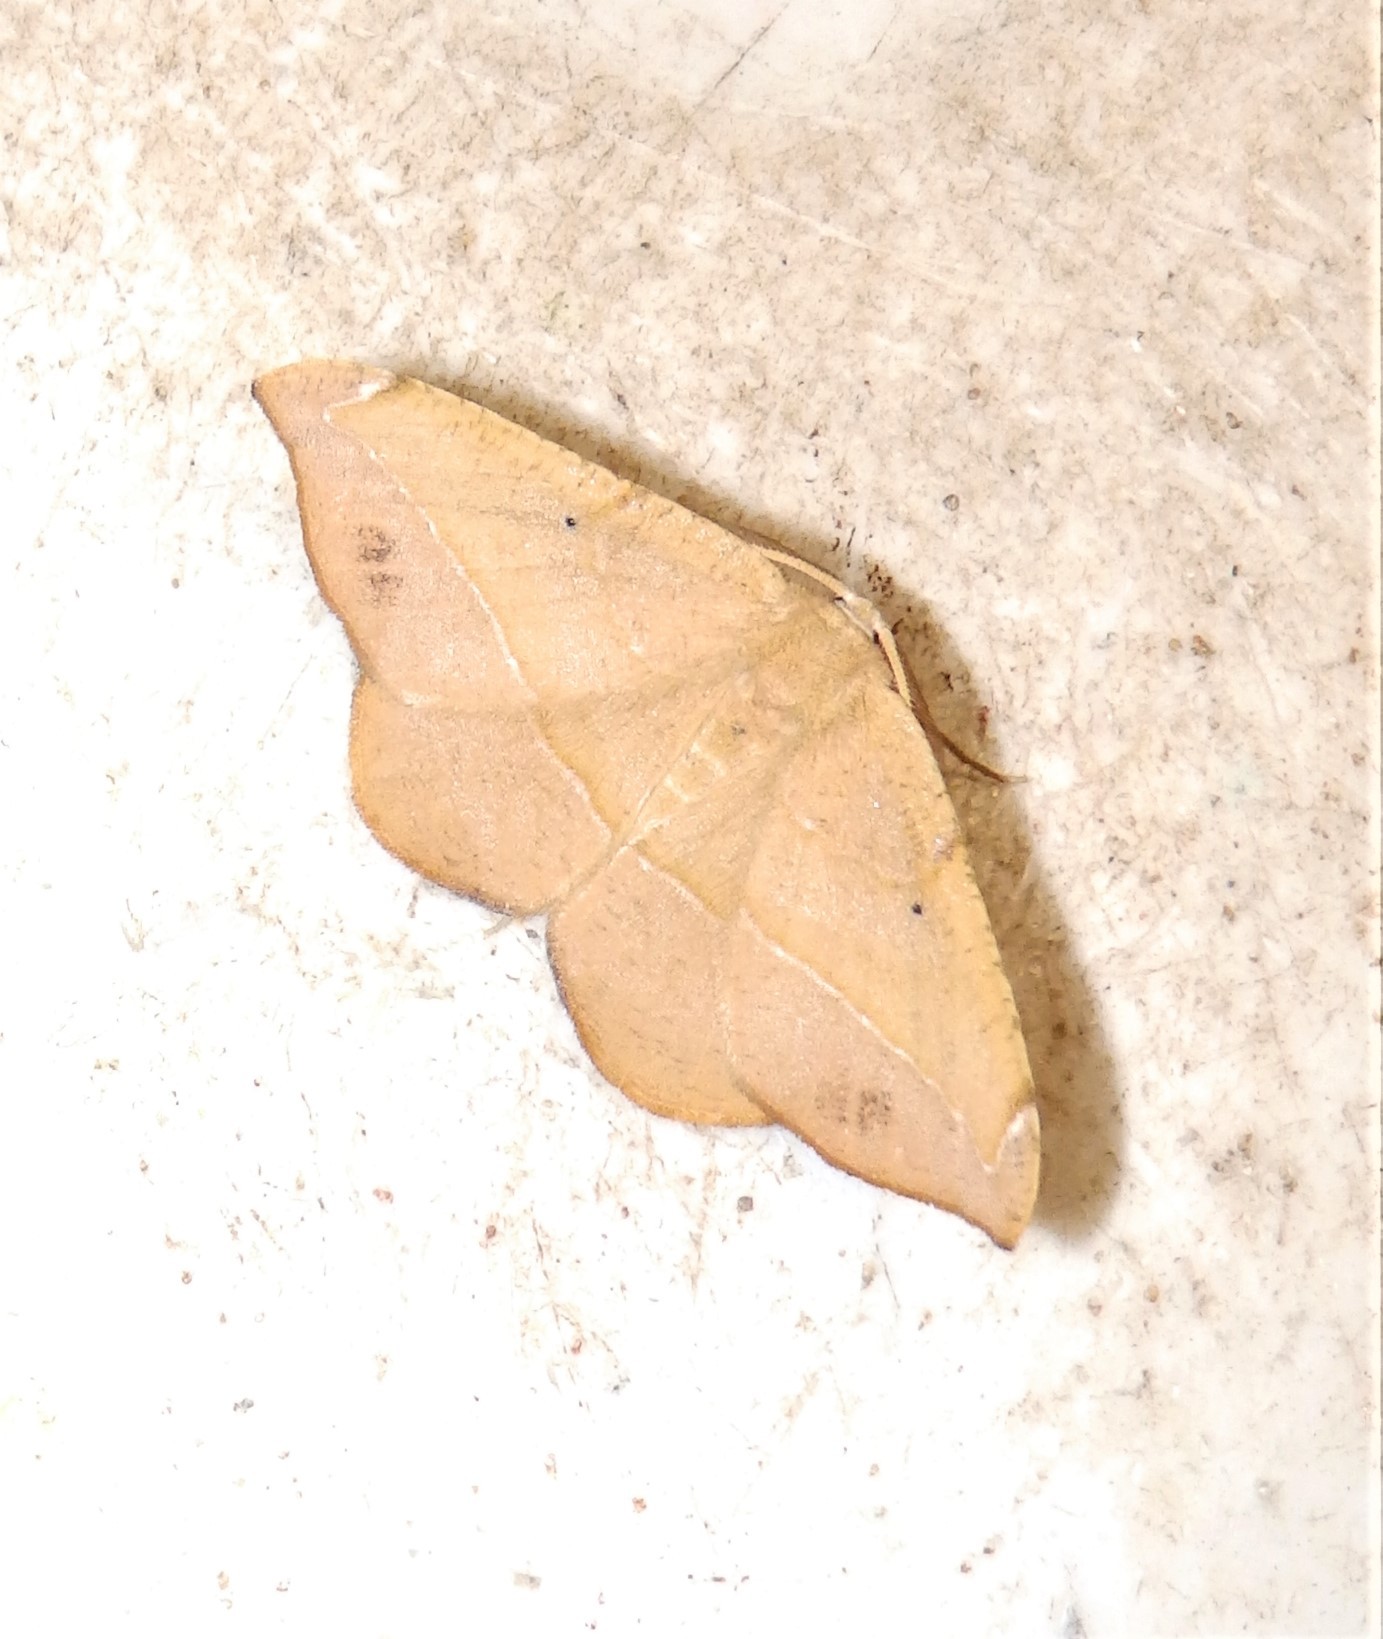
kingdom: Animalia
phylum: Arthropoda
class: Insecta
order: Lepidoptera
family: Geometridae
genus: Patalene
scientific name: Patalene olyzonaria
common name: Juniper geometer moth
